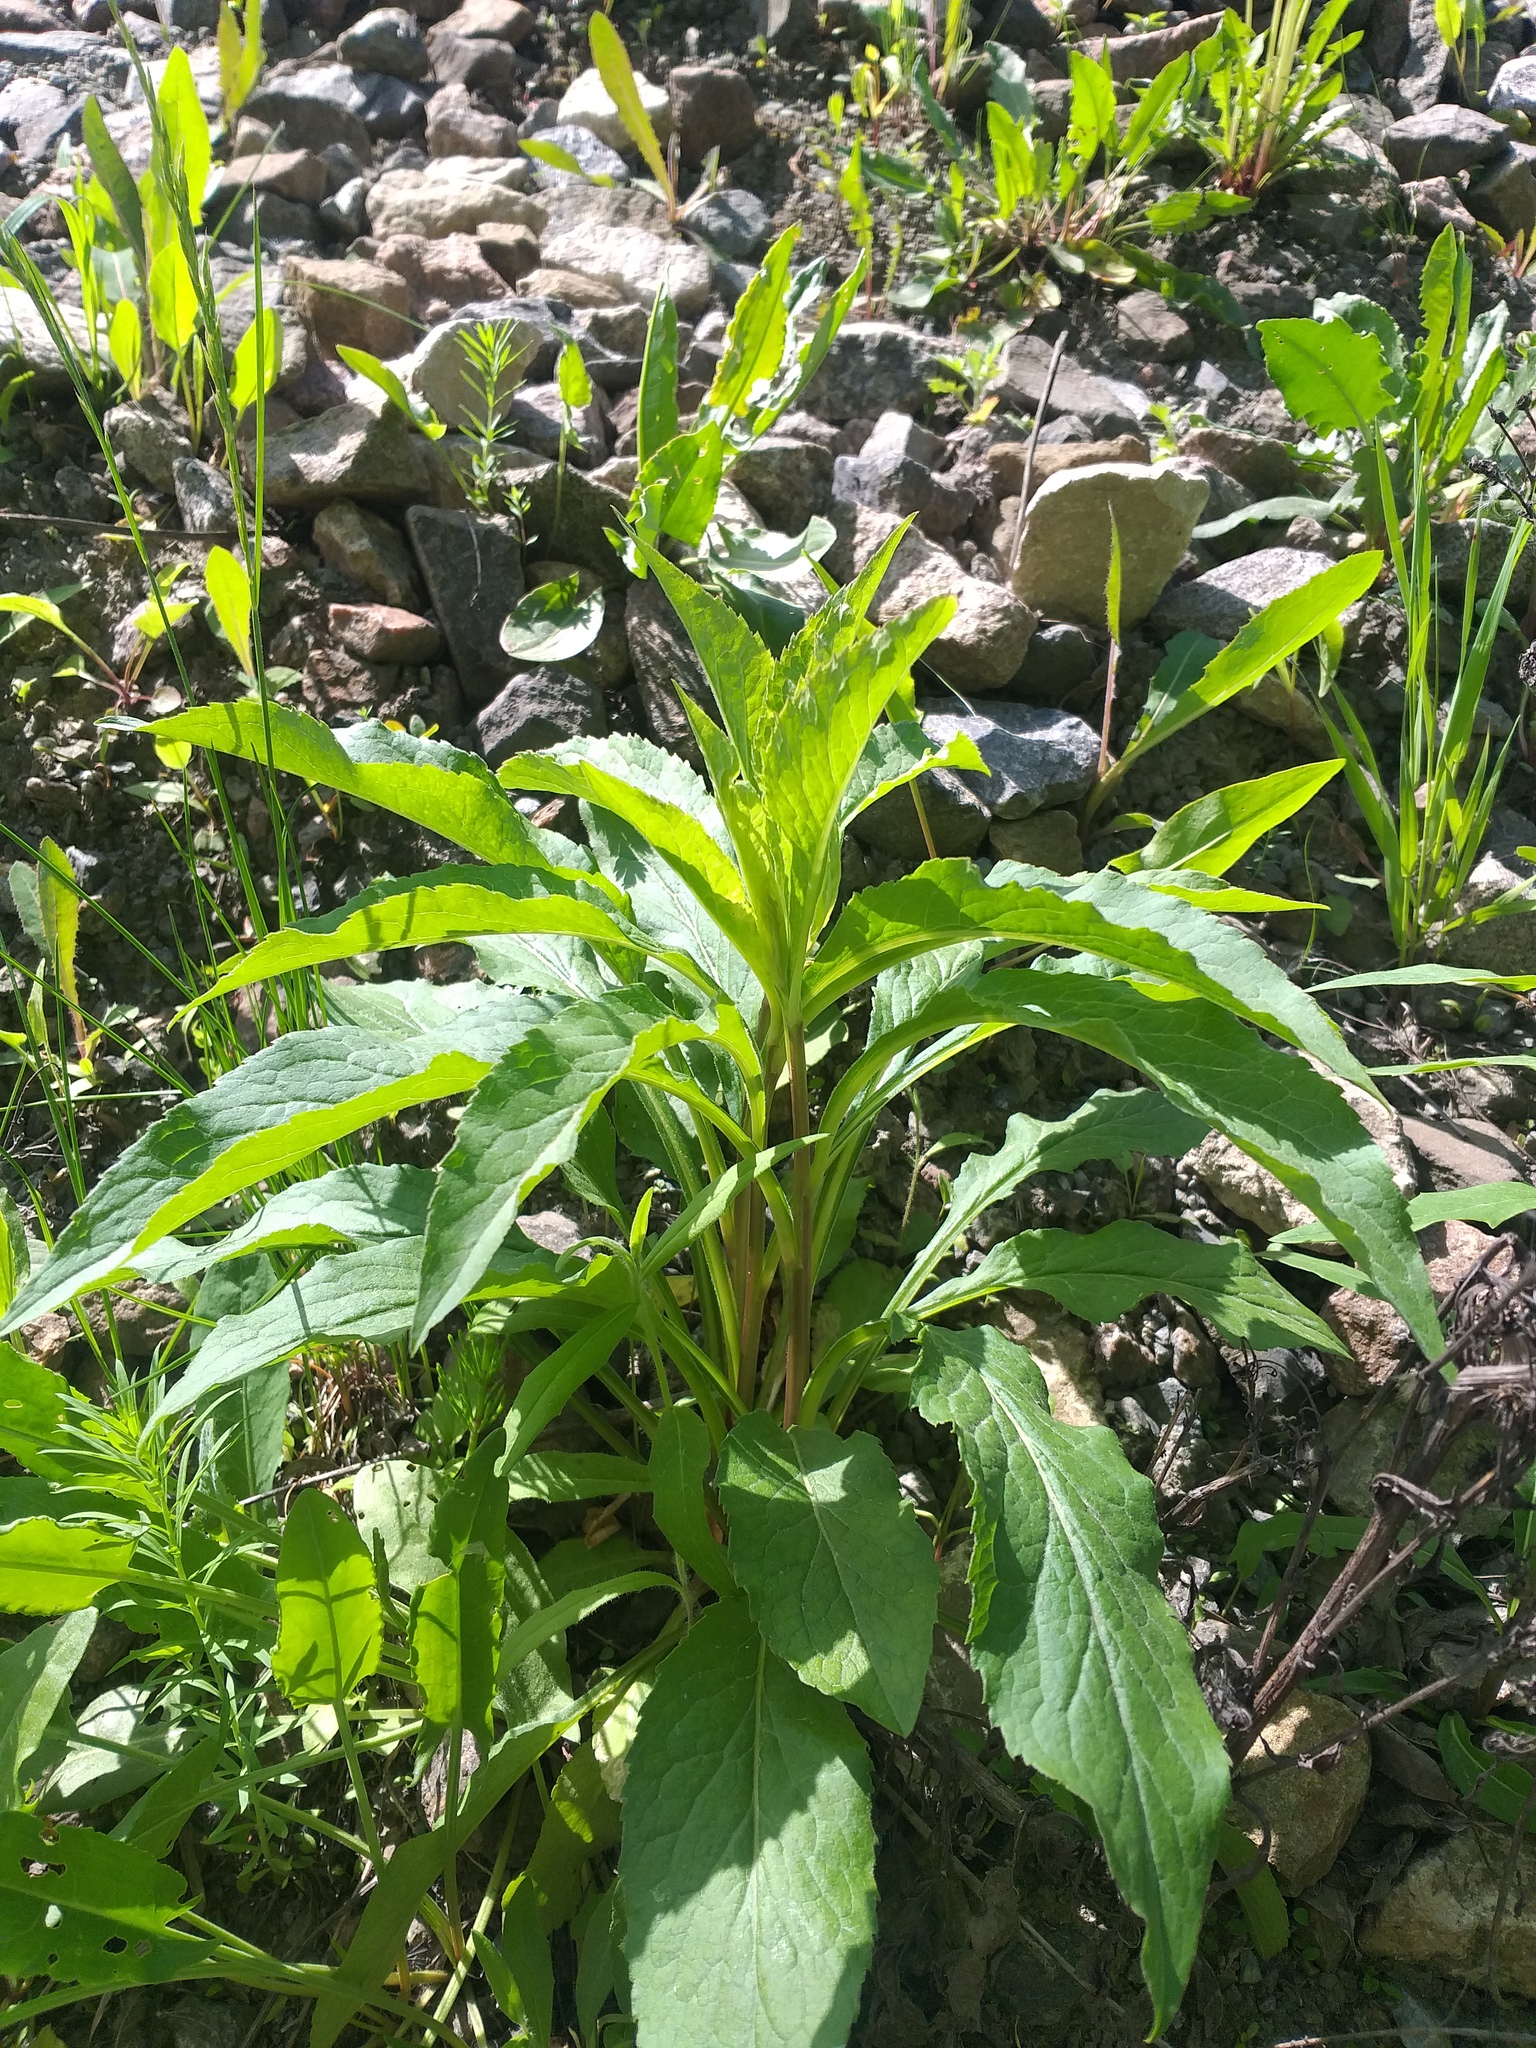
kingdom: Plantae
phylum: Tracheophyta
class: Magnoliopsida
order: Asterales
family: Asteraceae
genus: Solidago
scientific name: Solidago virgaurea
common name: Goldenrod
